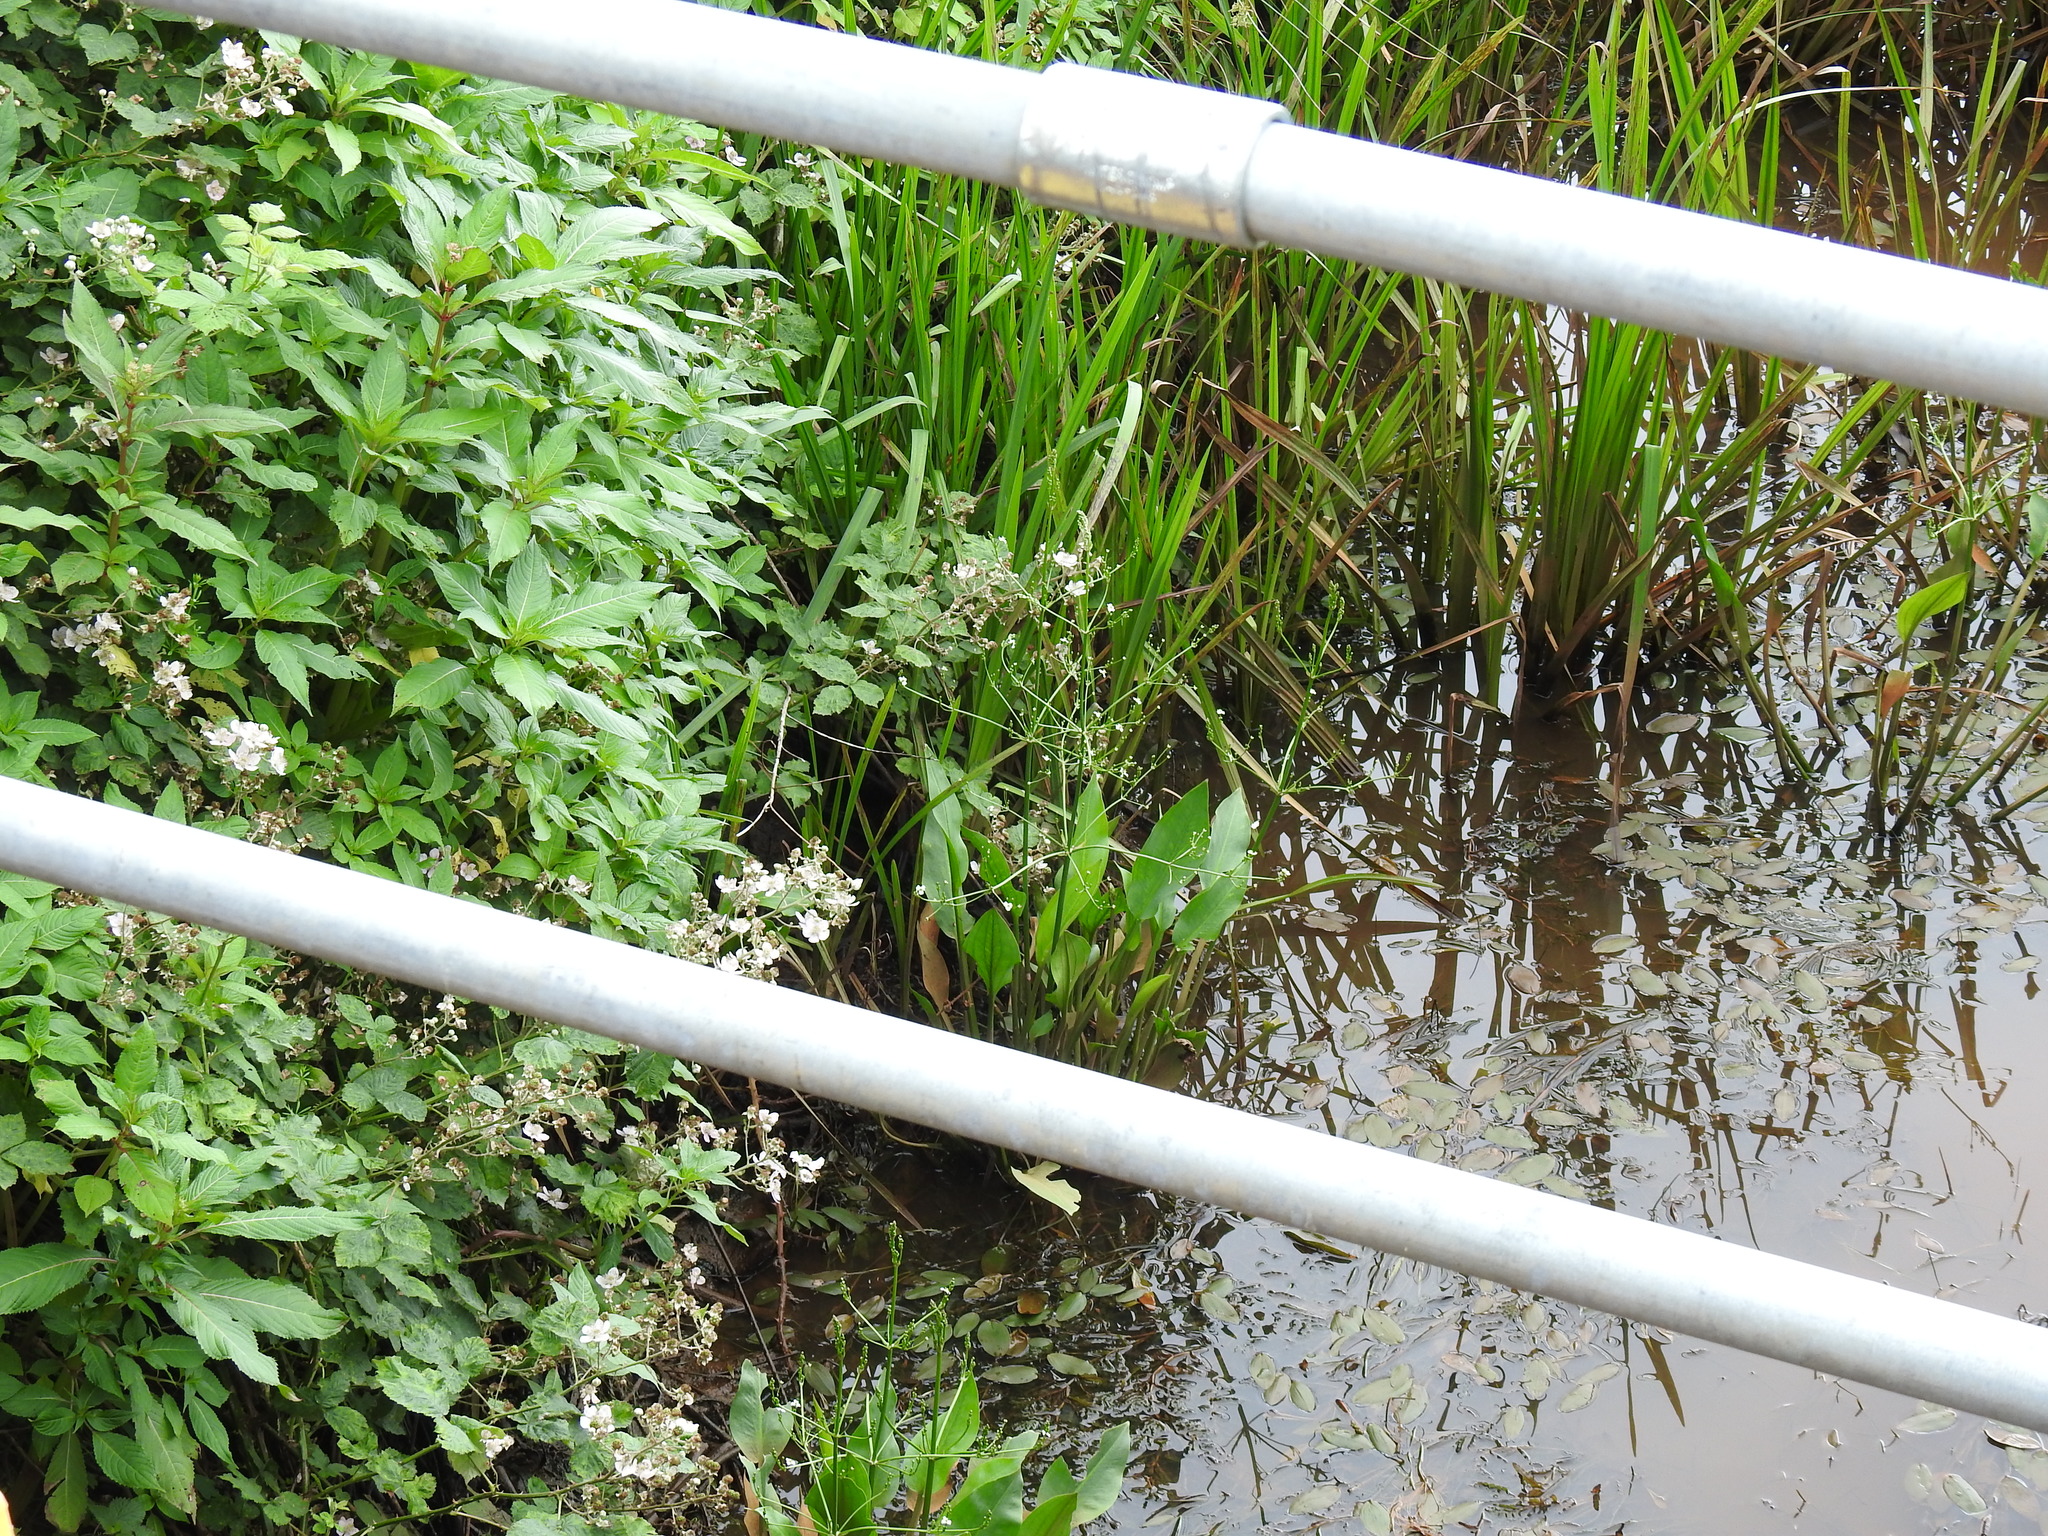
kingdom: Plantae
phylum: Tracheophyta
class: Liliopsida
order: Alismatales
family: Alismataceae
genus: Alisma
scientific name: Alisma plantago-aquatica
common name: Water-plantain
